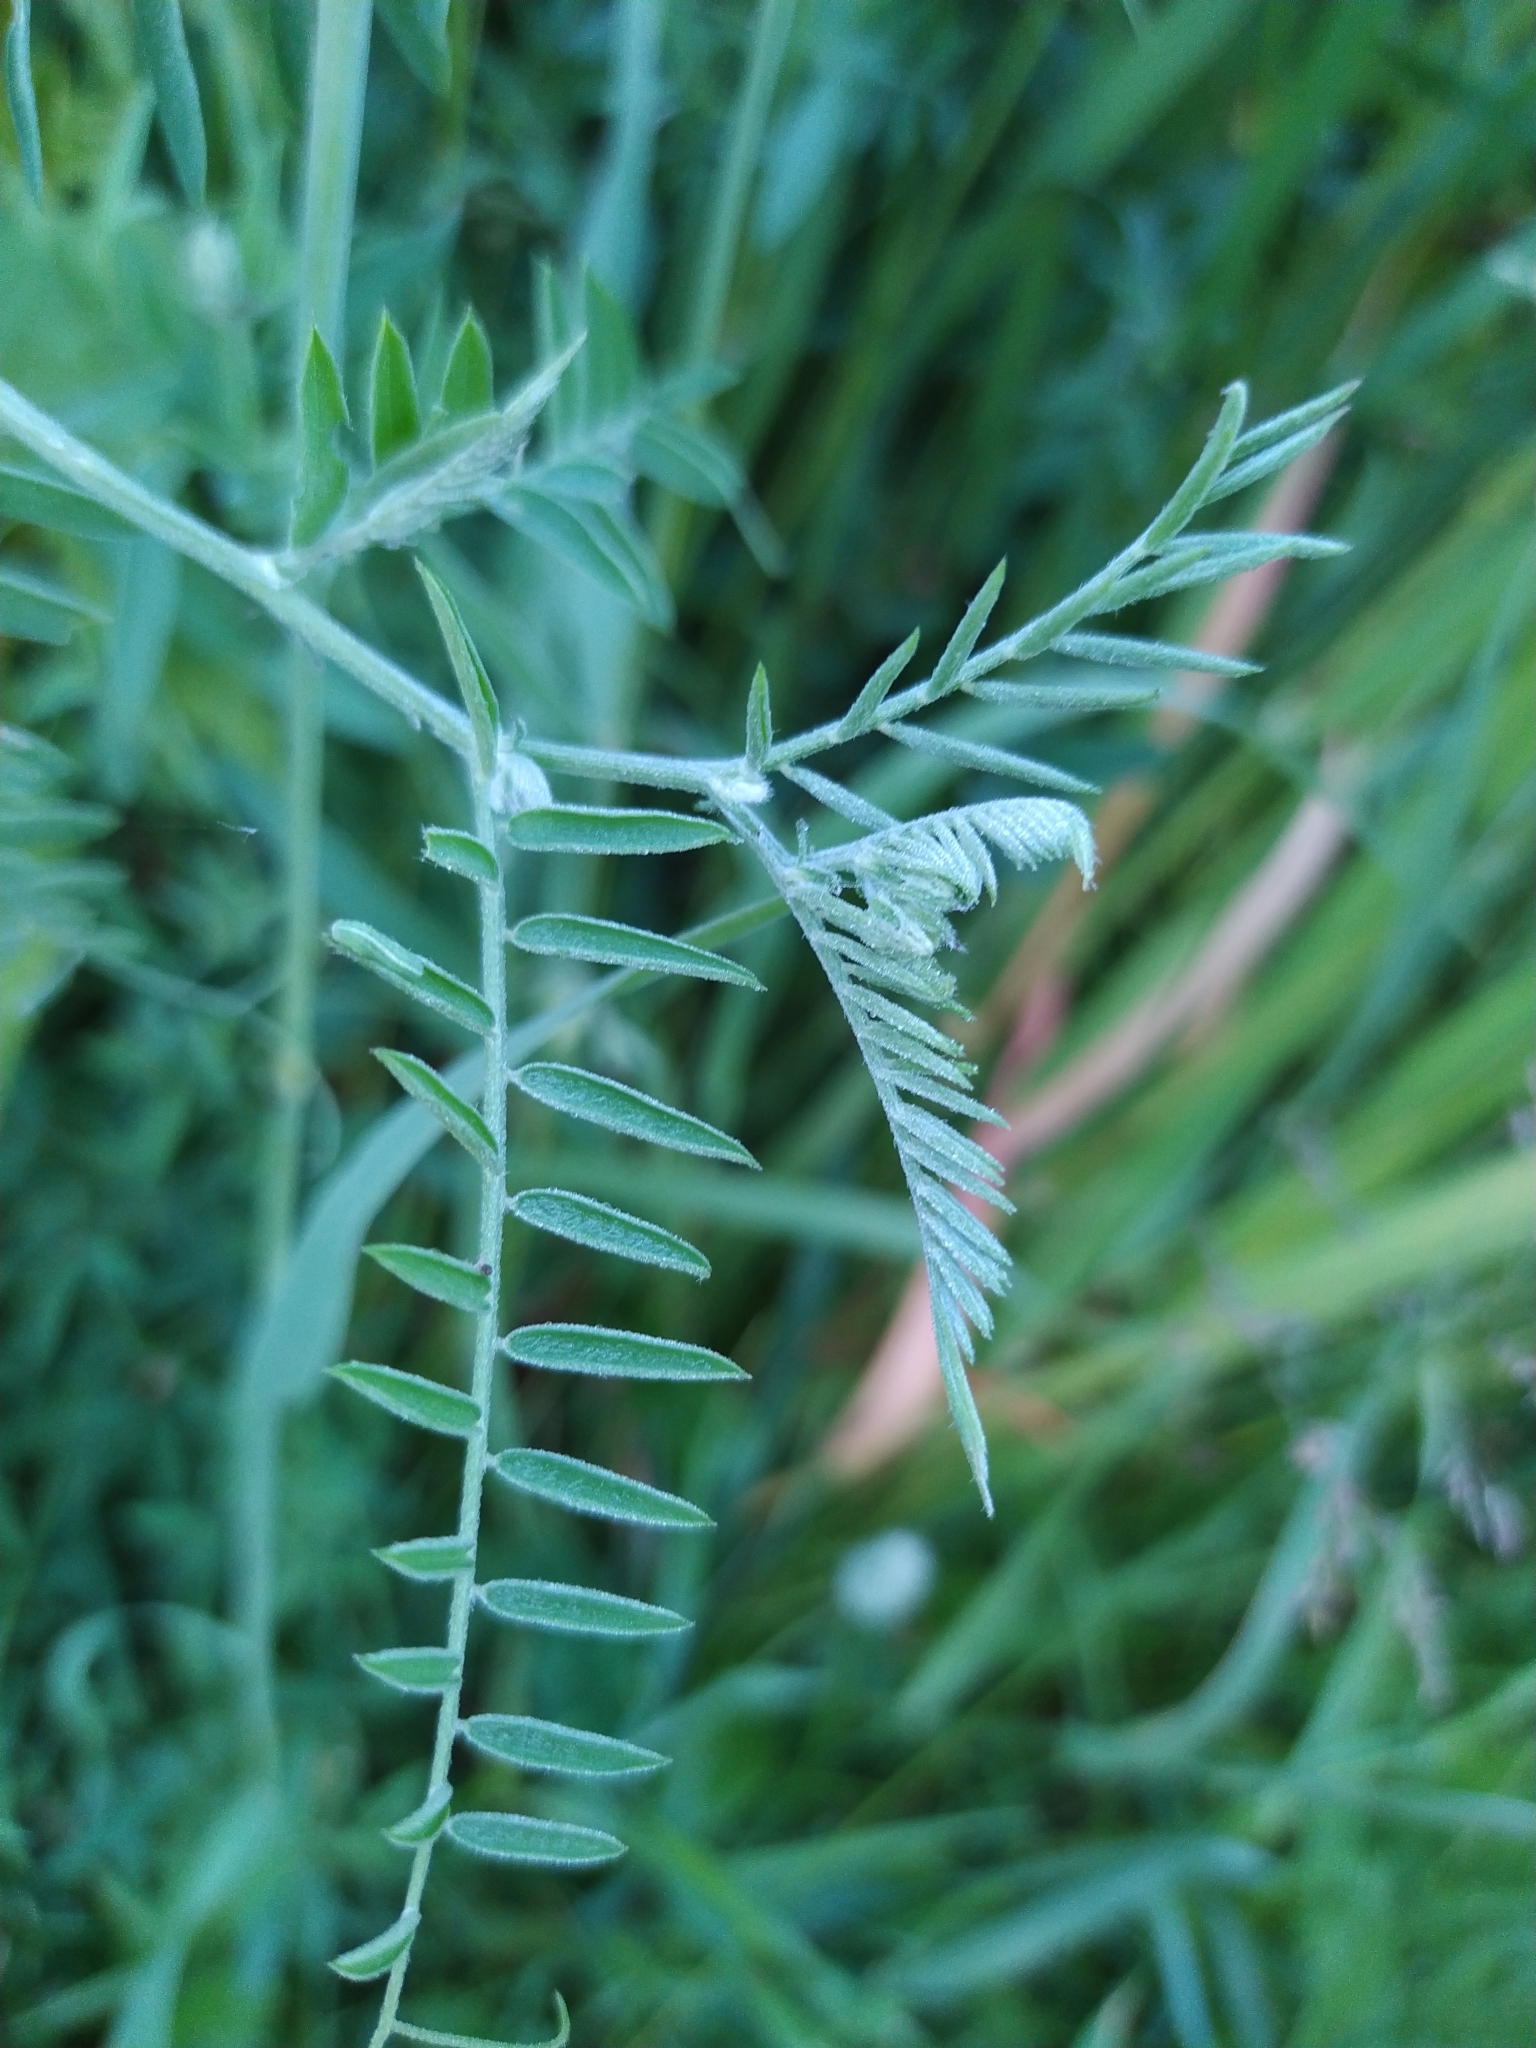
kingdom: Plantae
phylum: Tracheophyta
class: Magnoliopsida
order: Fabales
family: Fabaceae
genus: Vicia
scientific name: Vicia cracca
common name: Bird vetch
